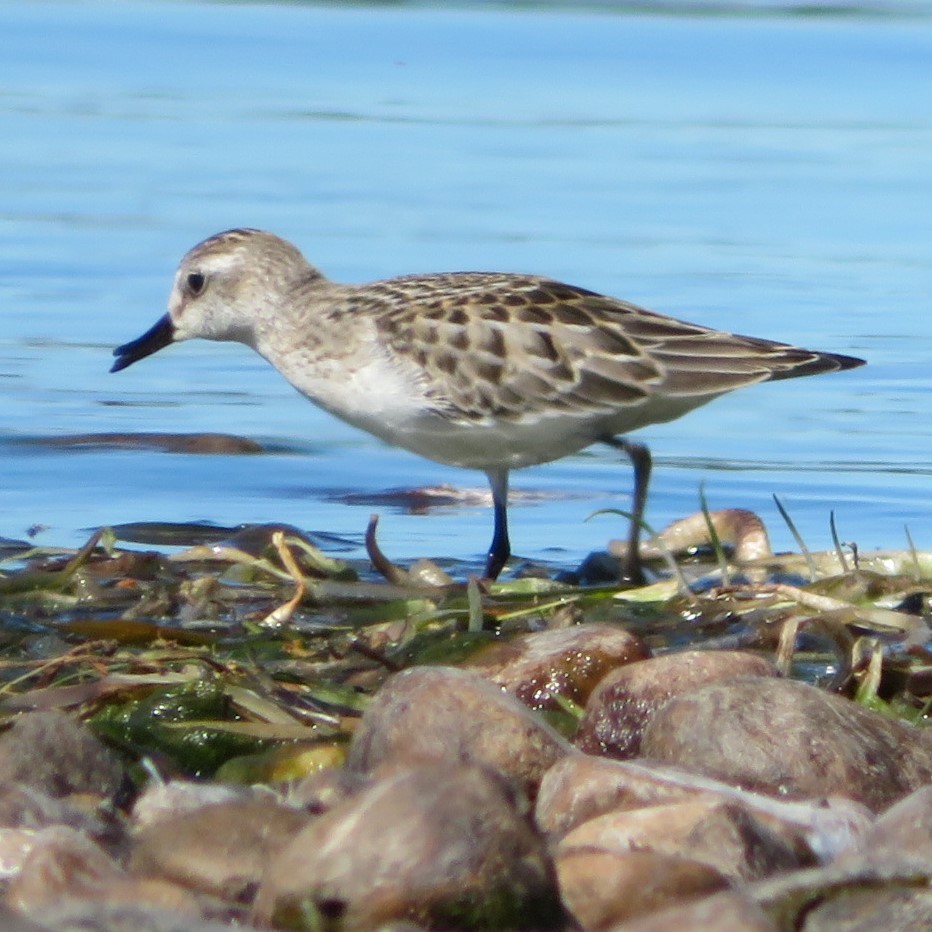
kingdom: Animalia
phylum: Chordata
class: Aves
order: Charadriiformes
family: Scolopacidae
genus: Calidris
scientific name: Calidris pusilla
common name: Semipalmated sandpiper
